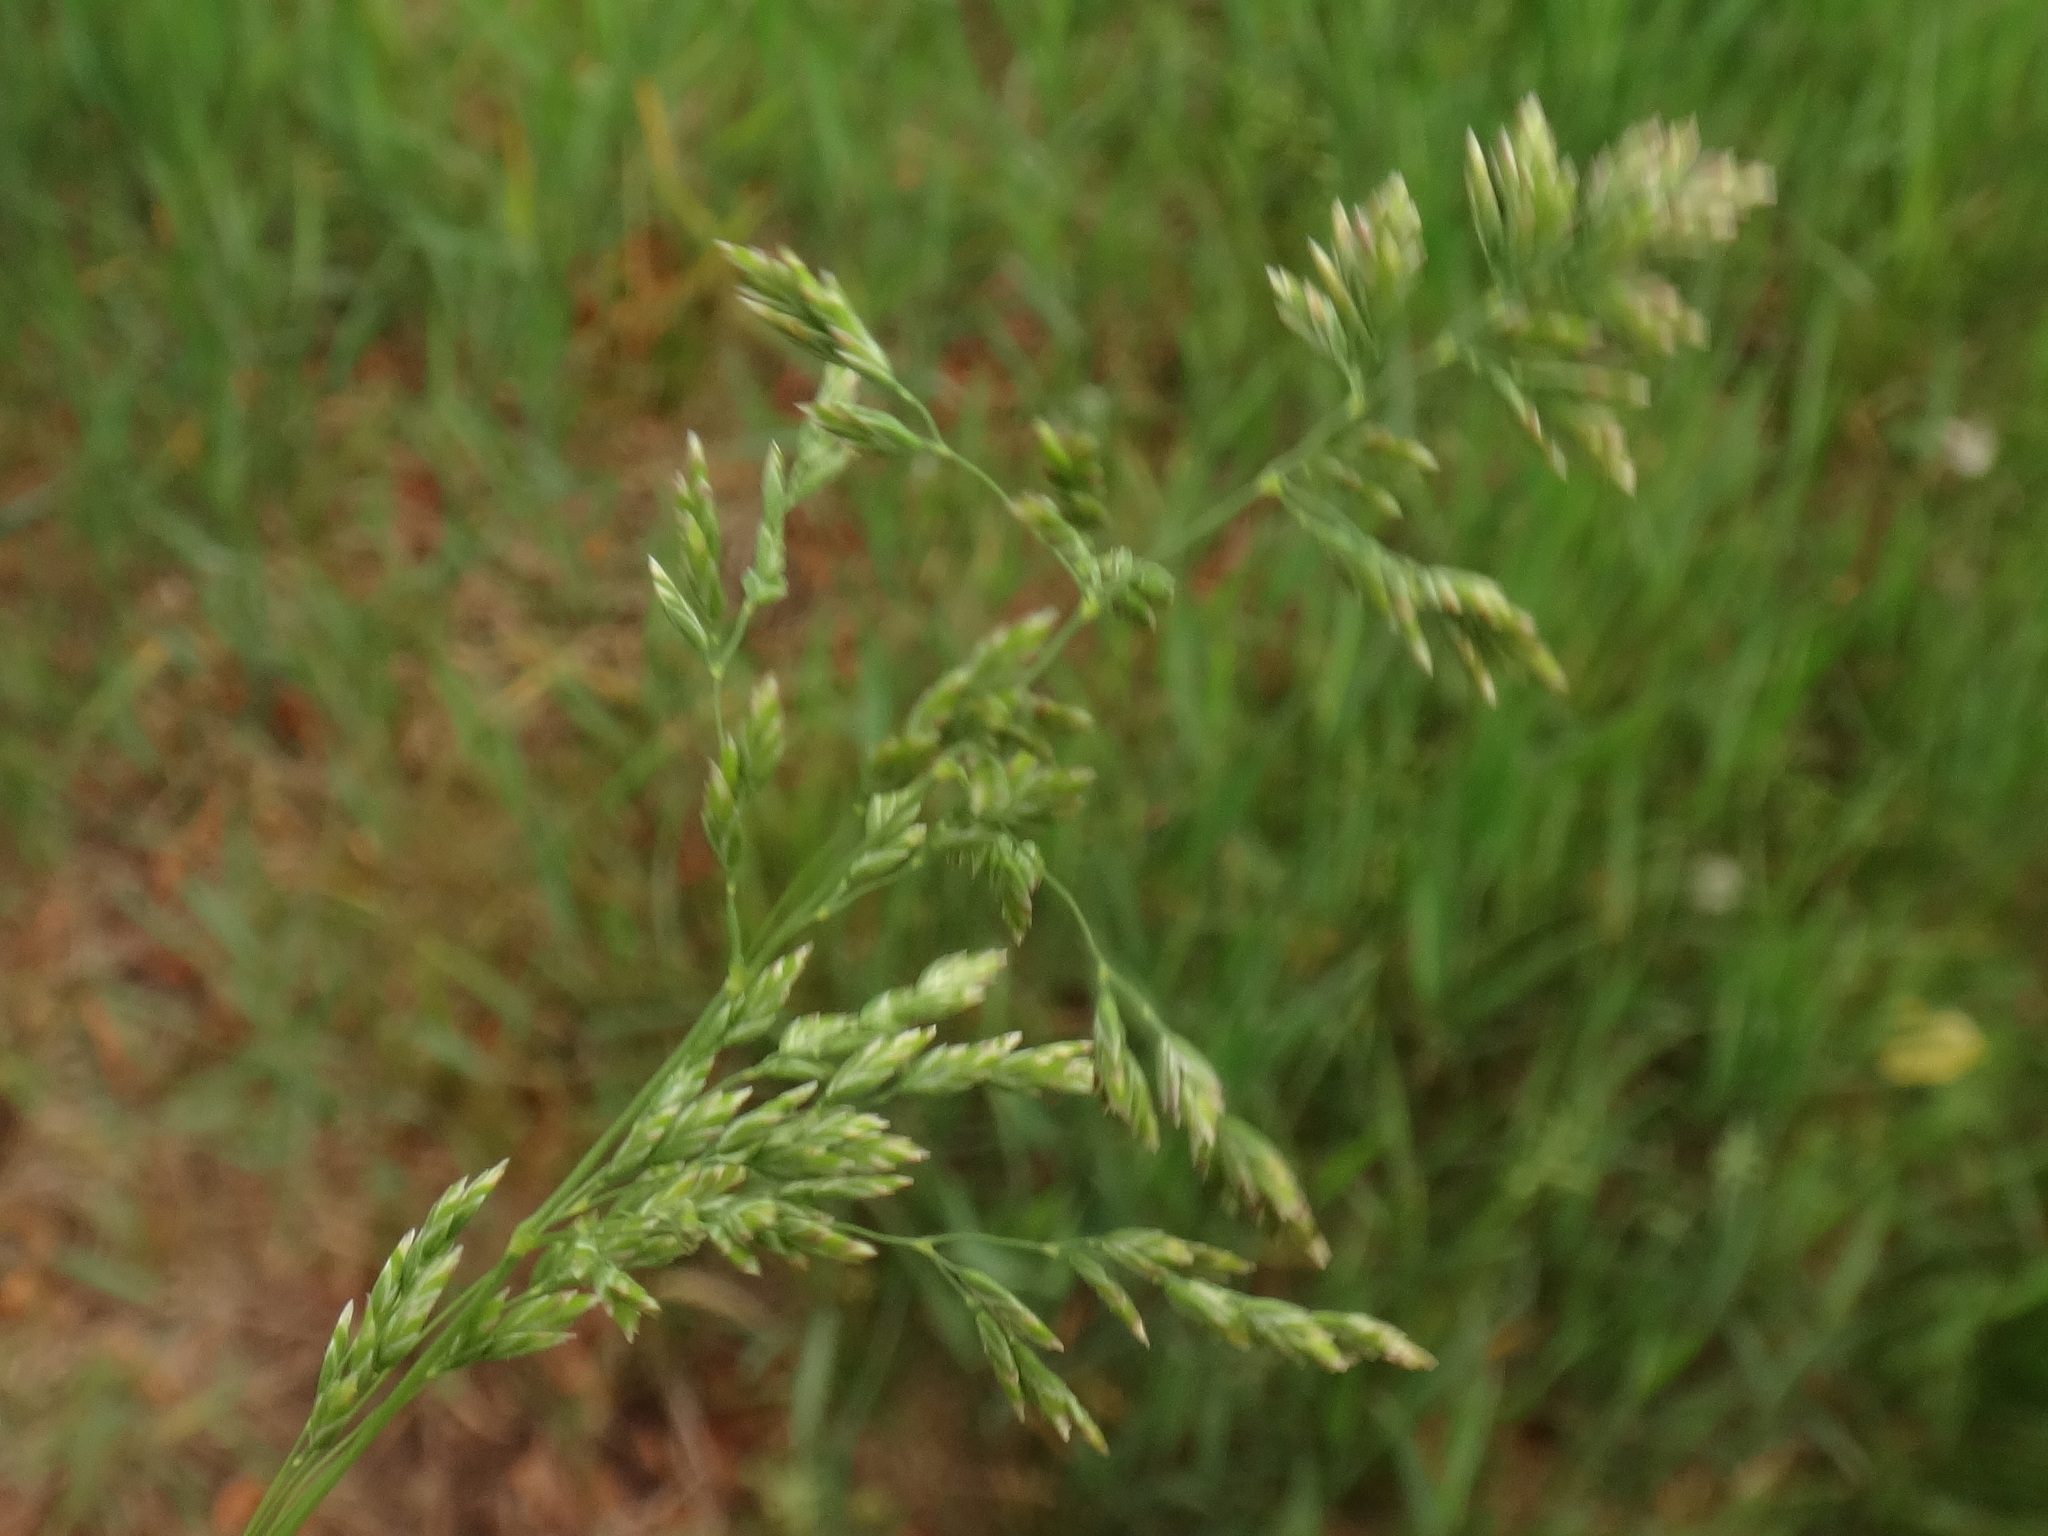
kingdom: Plantae
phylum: Tracheophyta
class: Liliopsida
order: Poales
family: Poaceae
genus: Poa
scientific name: Poa pratensis
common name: Kentucky bluegrass
